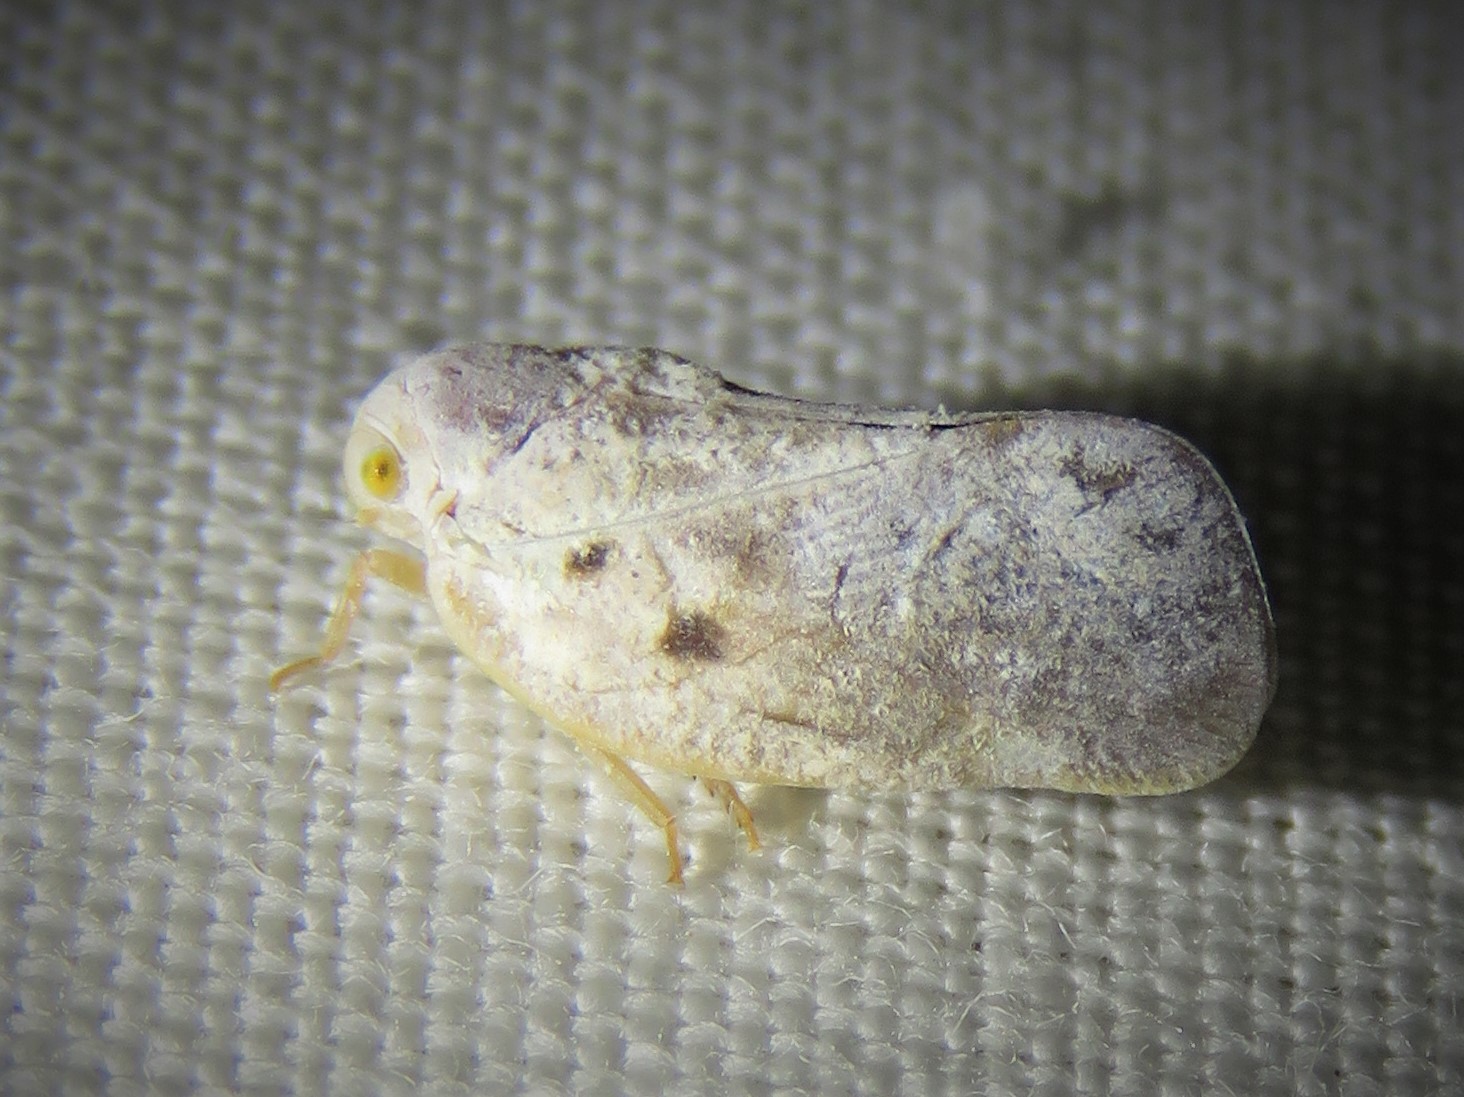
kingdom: Animalia
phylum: Arthropoda
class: Insecta
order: Hemiptera
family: Flatidae
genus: Metcalfa
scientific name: Metcalfa pruinosa
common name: Citrus flatid planthopper
